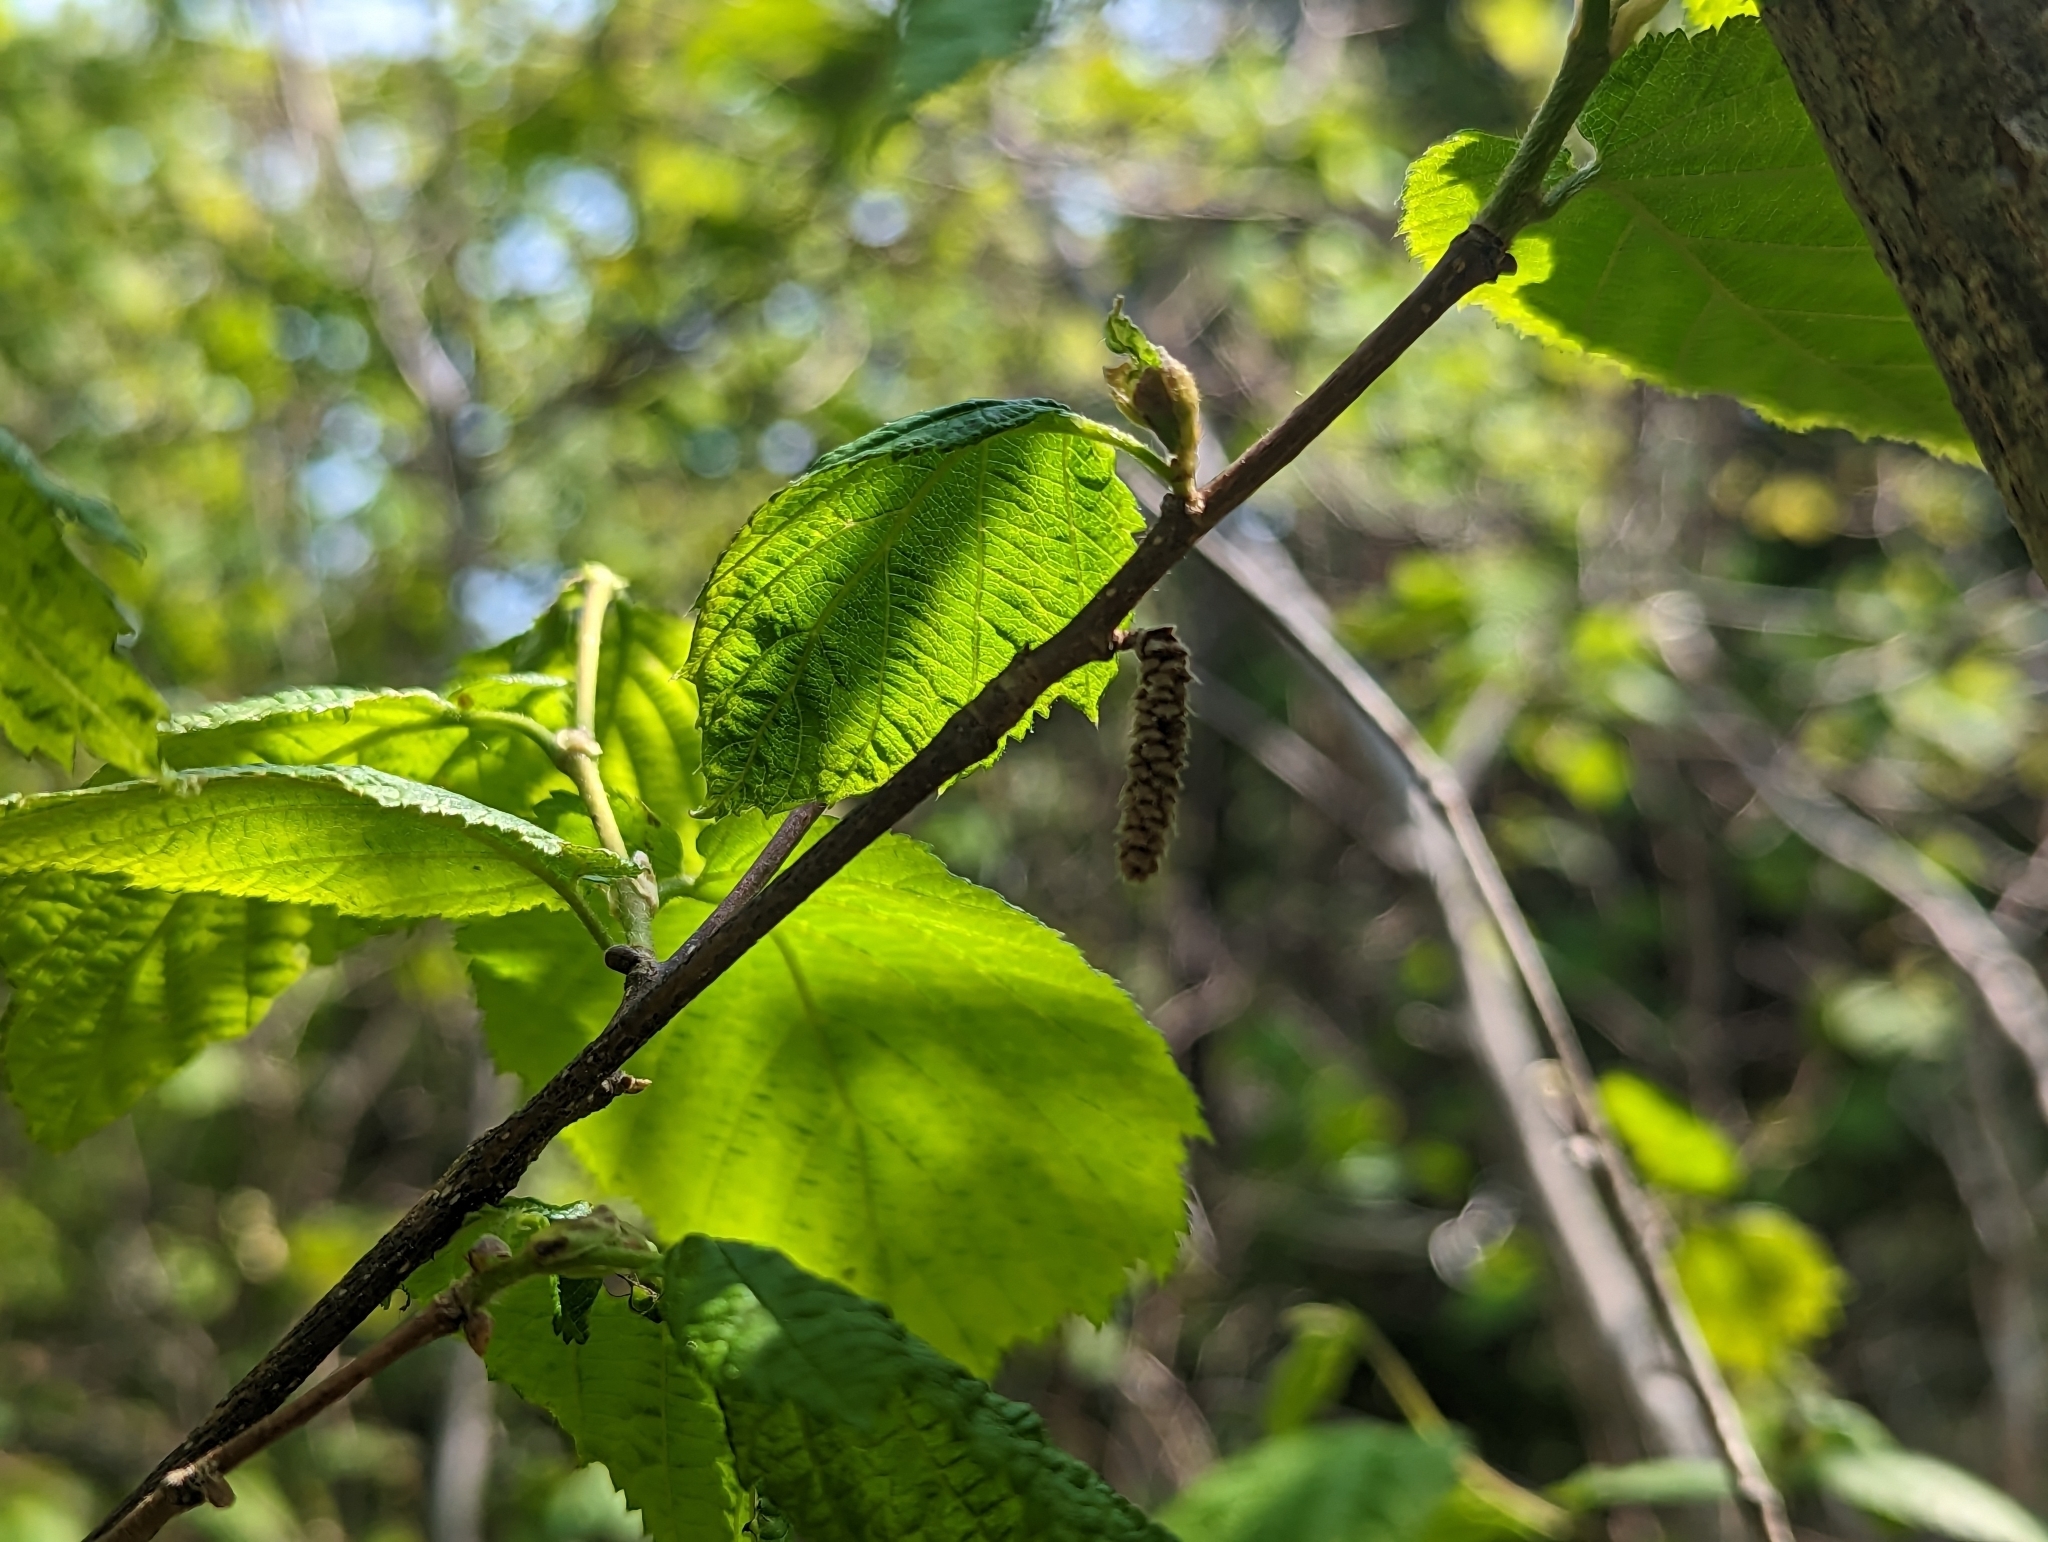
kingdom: Plantae
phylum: Tracheophyta
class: Magnoliopsida
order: Fagales
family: Betulaceae
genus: Corylus
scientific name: Corylus cornuta
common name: Beaked hazel
